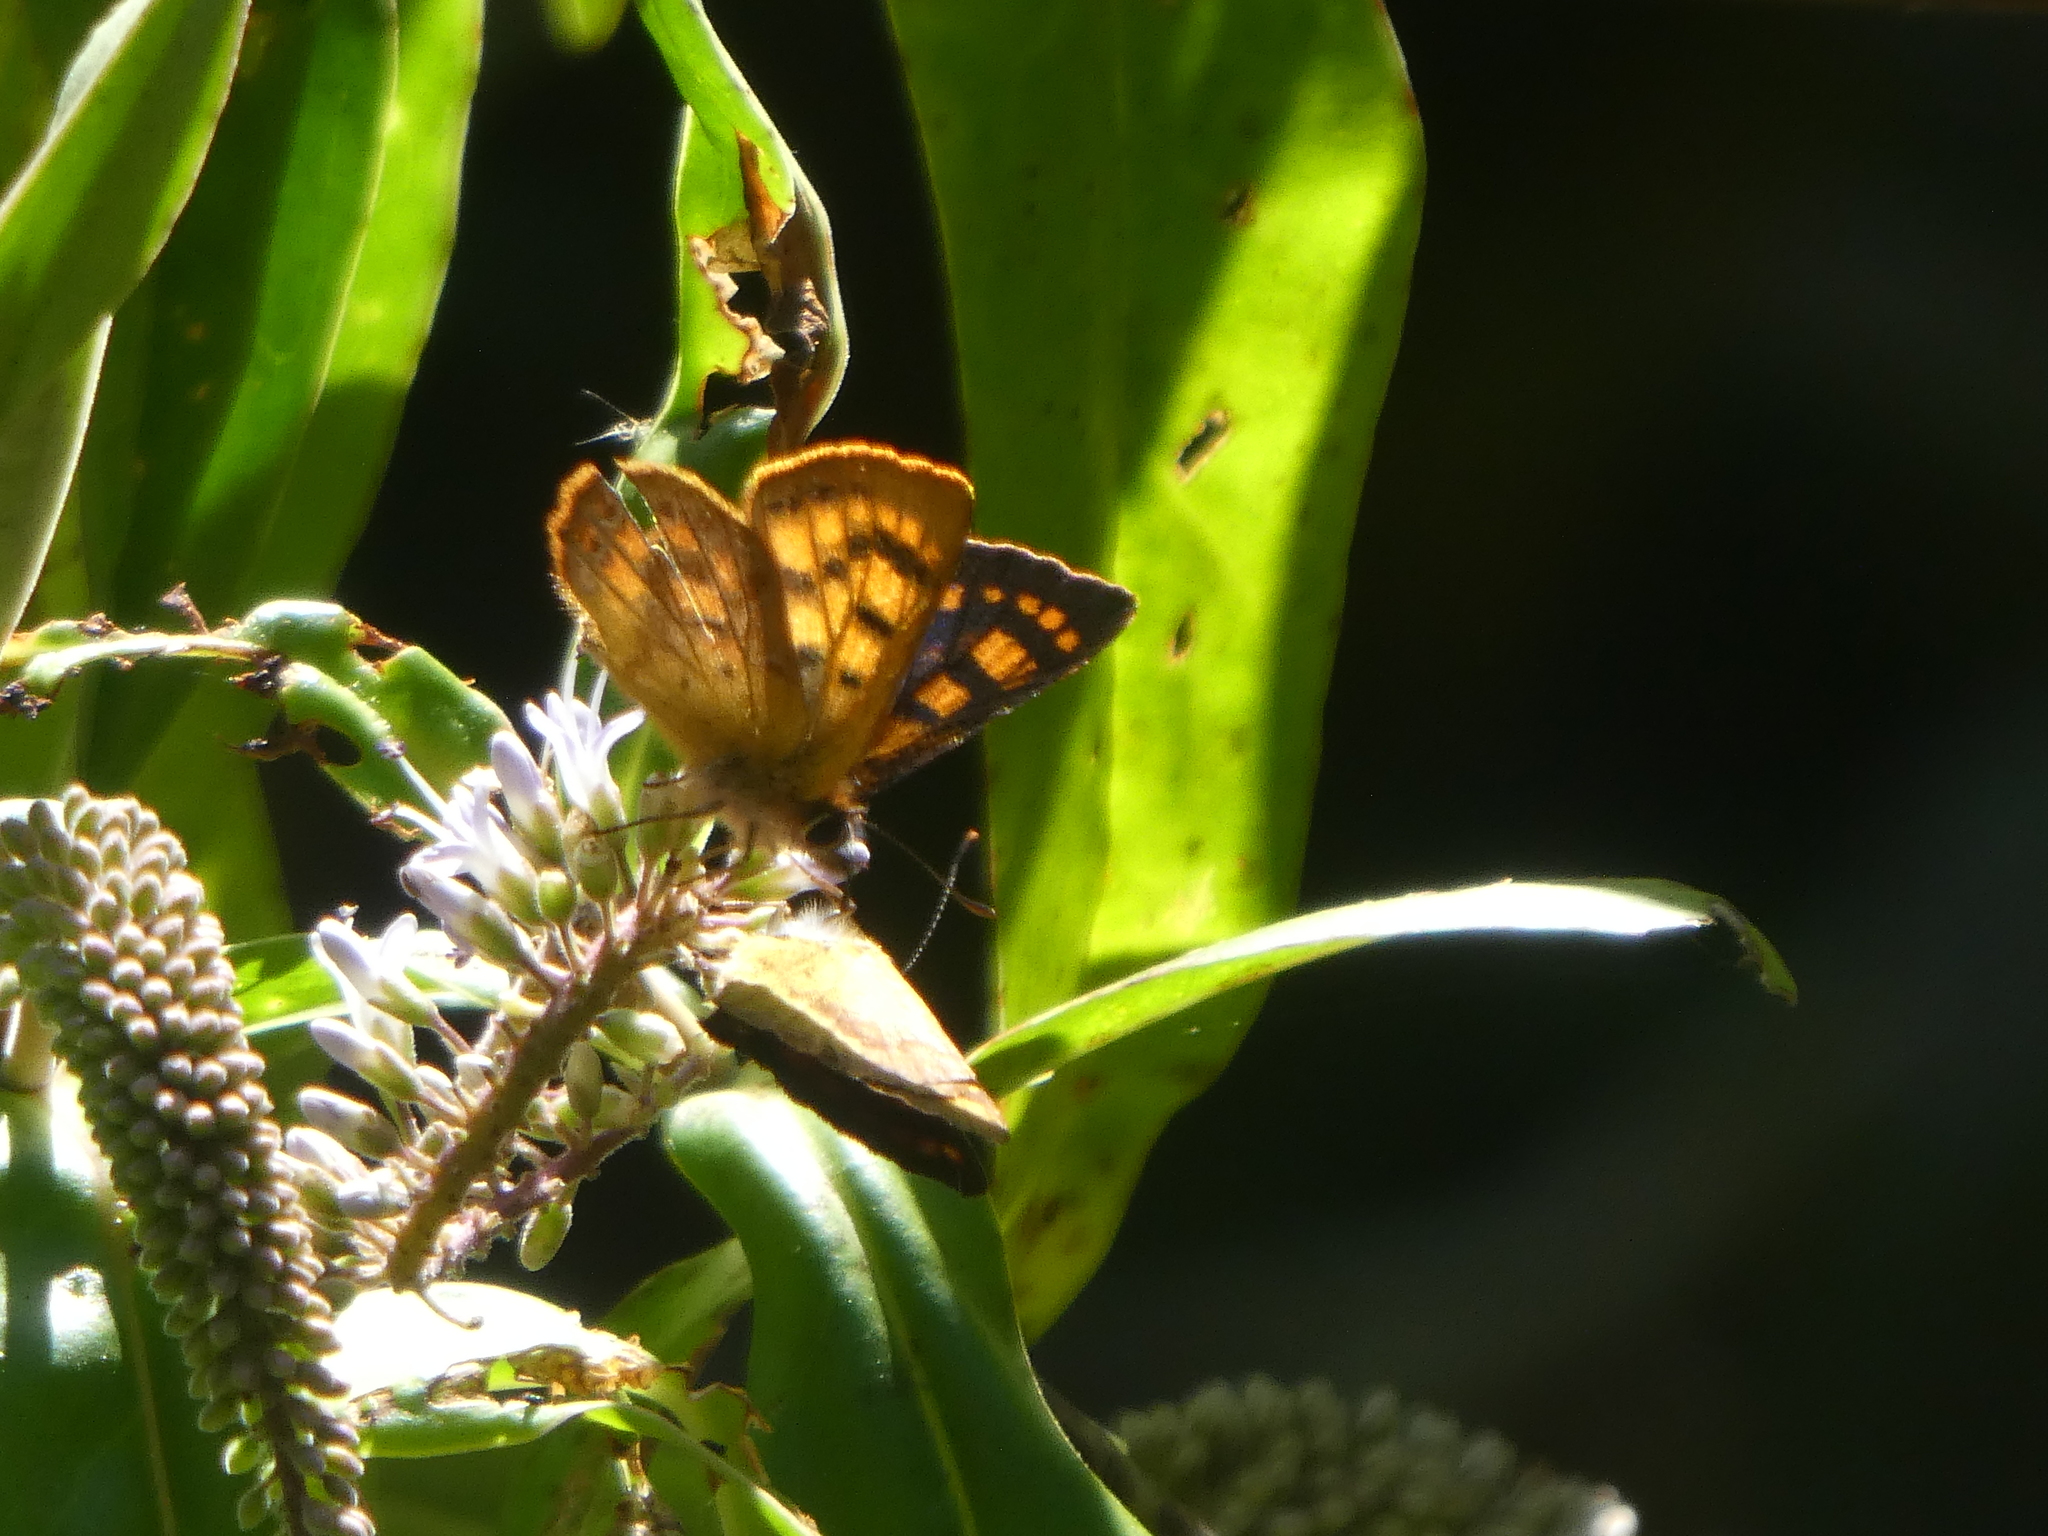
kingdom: Animalia
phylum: Arthropoda
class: Insecta
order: Lepidoptera
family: Lycaenidae
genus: Lycaena
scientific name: Lycaena
